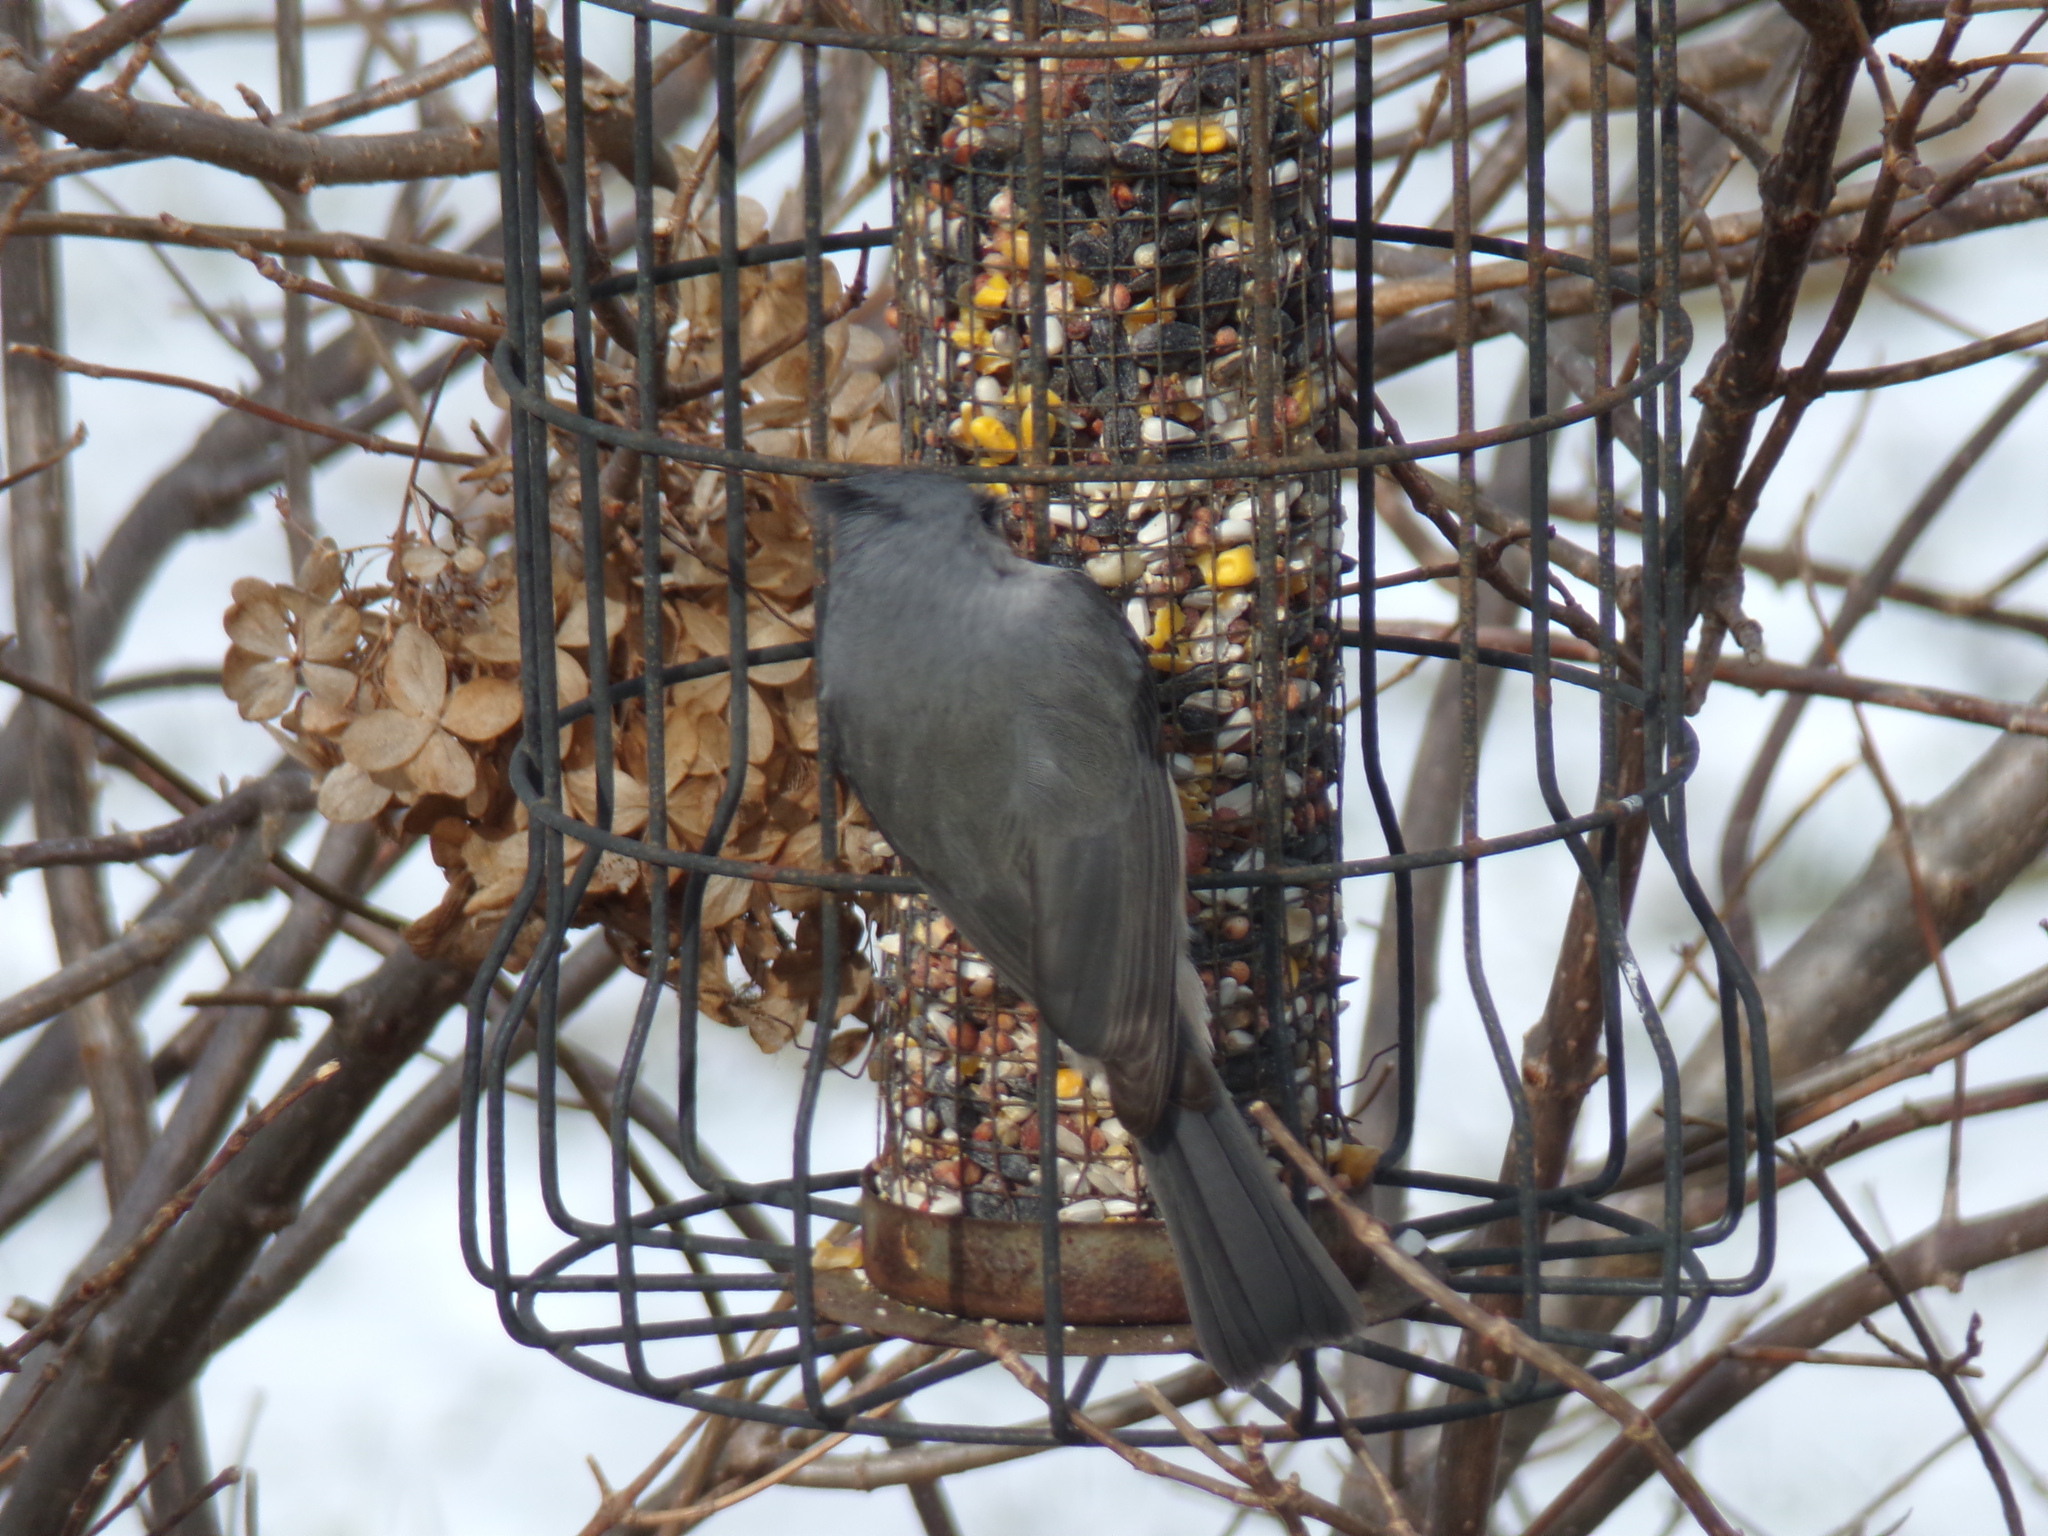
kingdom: Animalia
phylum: Chordata
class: Aves
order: Passeriformes
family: Paridae
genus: Baeolophus
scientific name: Baeolophus bicolor
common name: Tufted titmouse
